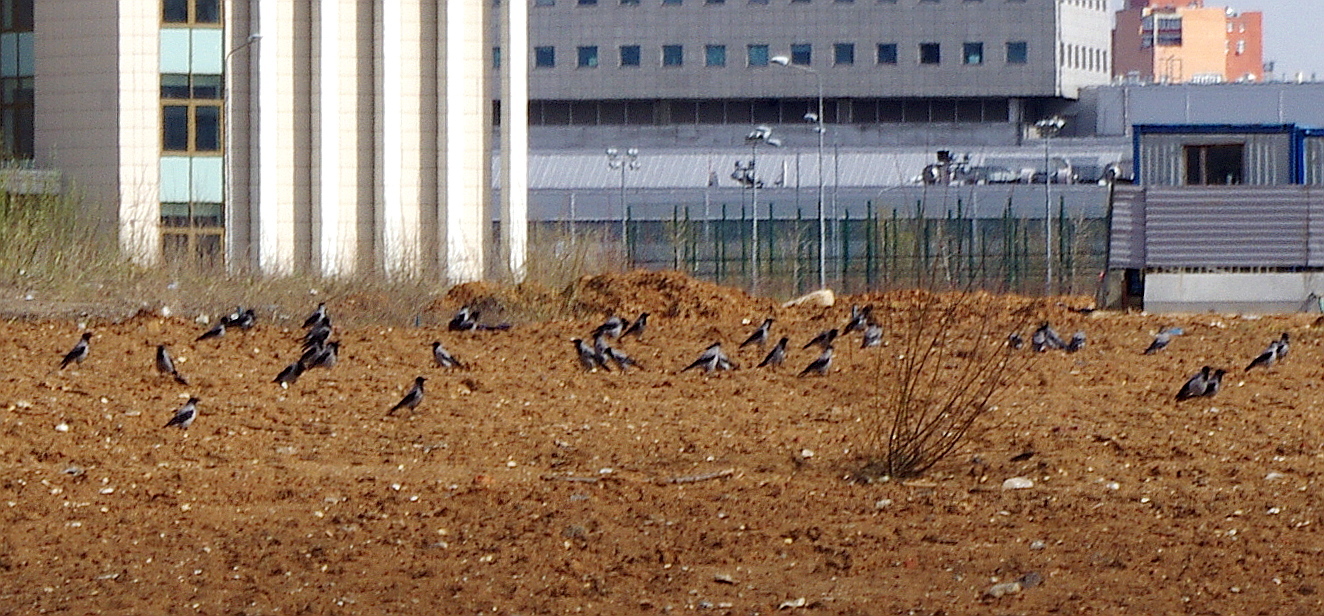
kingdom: Animalia
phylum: Chordata
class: Aves
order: Passeriformes
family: Corvidae
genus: Corvus
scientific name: Corvus cornix
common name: Hooded crow
